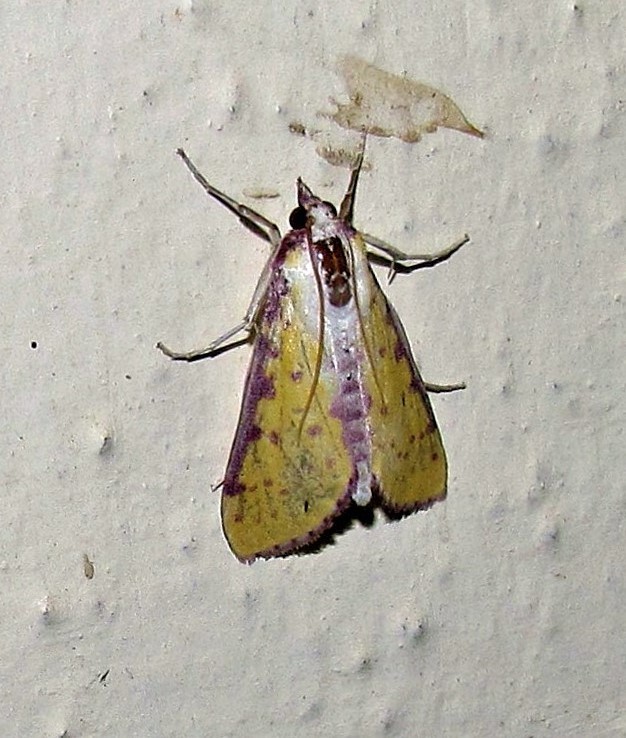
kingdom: Animalia
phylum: Arthropoda
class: Insecta
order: Lepidoptera
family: Crambidae
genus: Polygrammodes
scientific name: Polygrammodes sanguiguttalis
